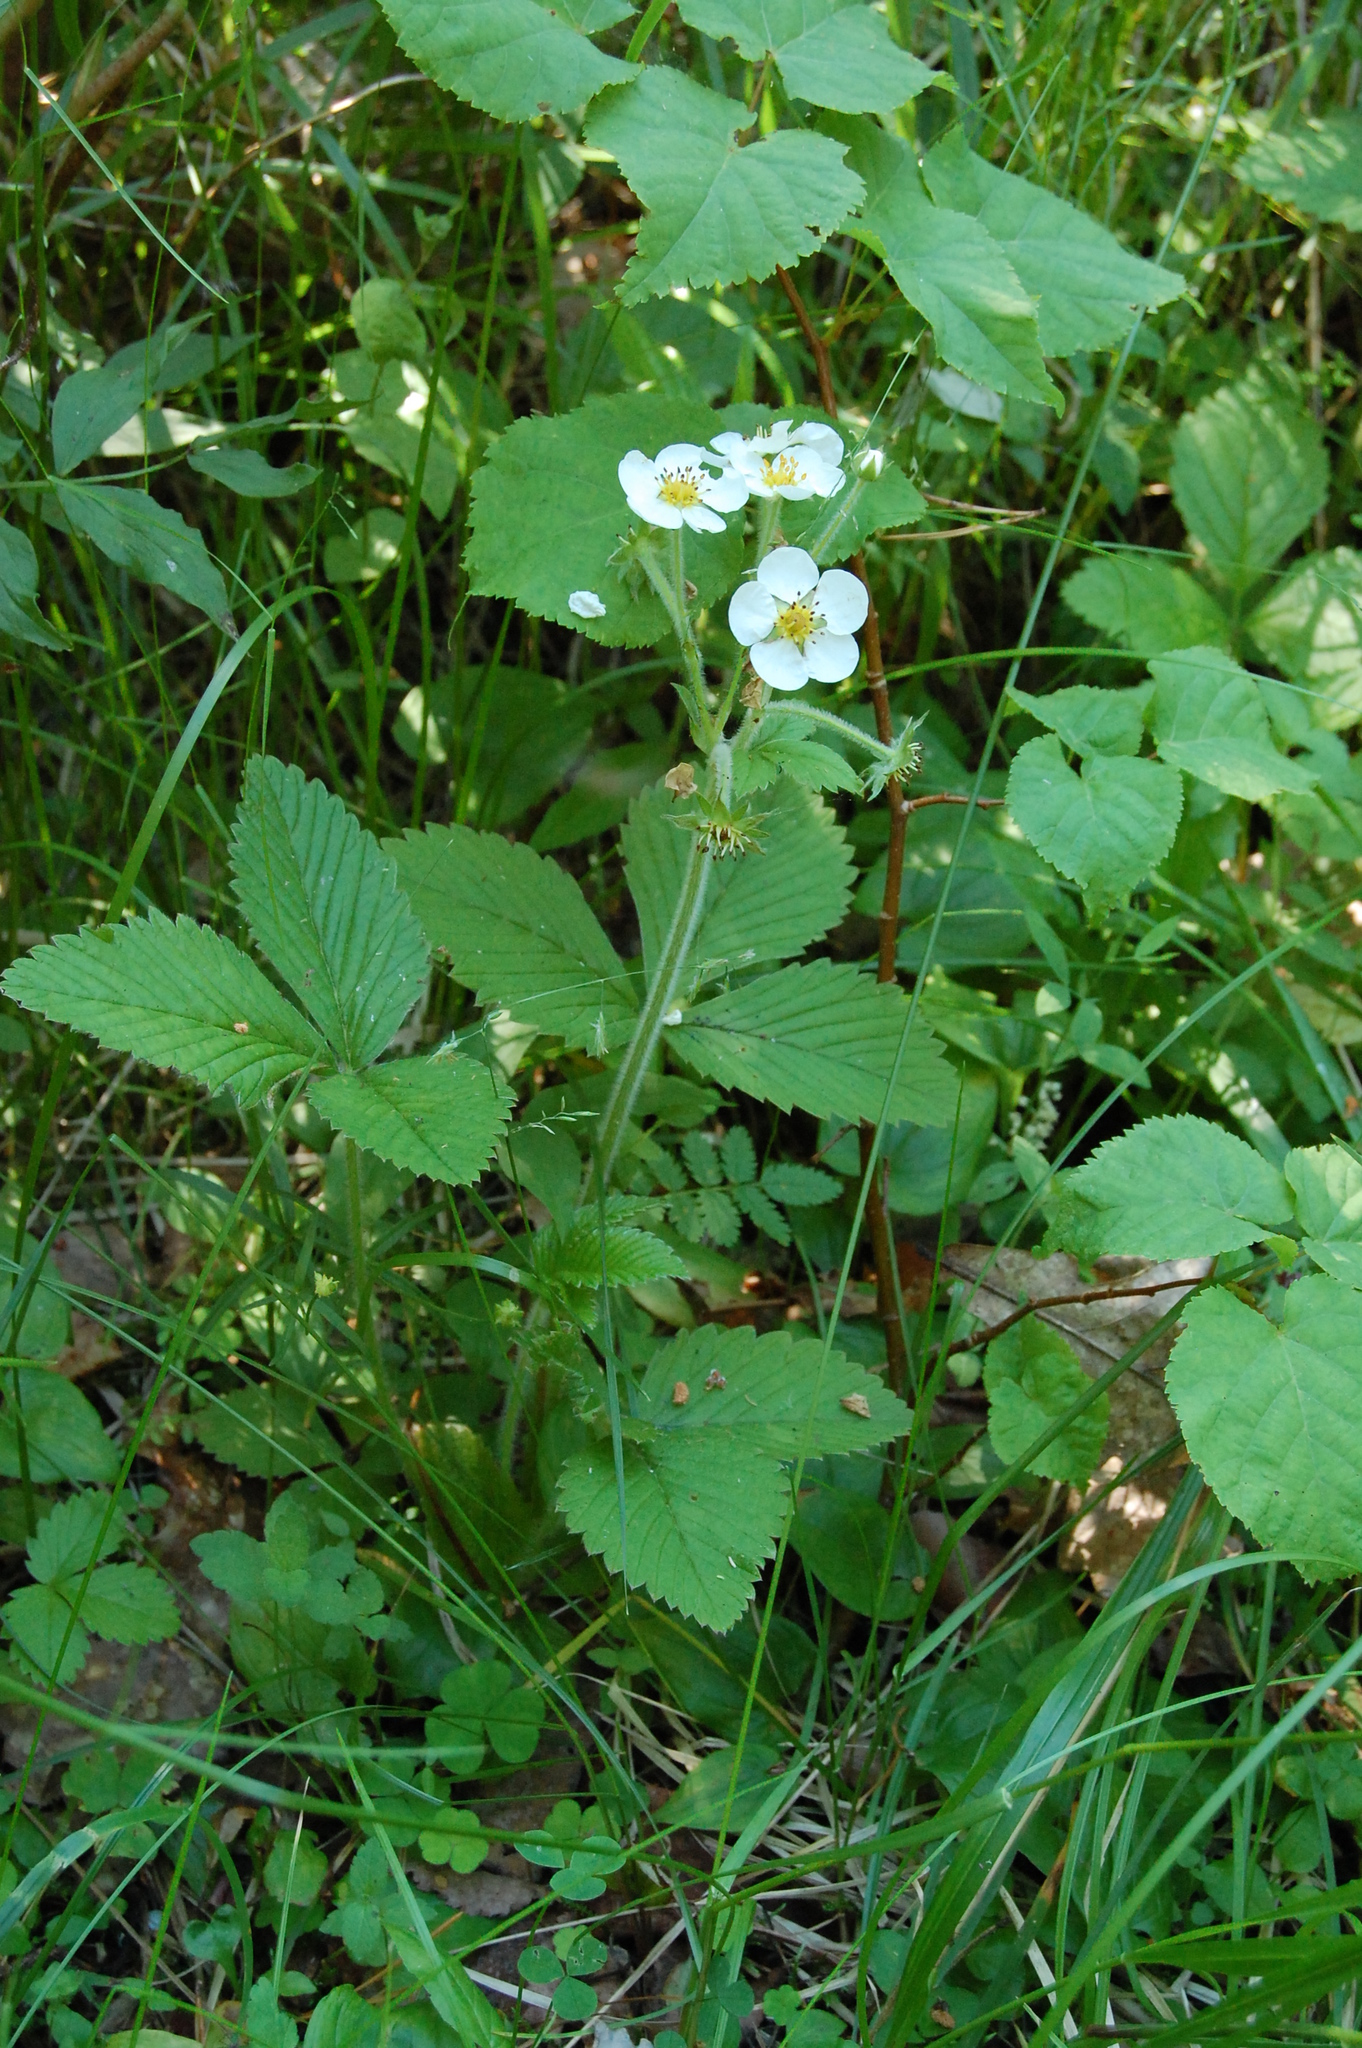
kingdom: Plantae
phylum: Tracheophyta
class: Magnoliopsida
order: Rosales
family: Rosaceae
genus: Fragaria
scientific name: Fragaria moschata
